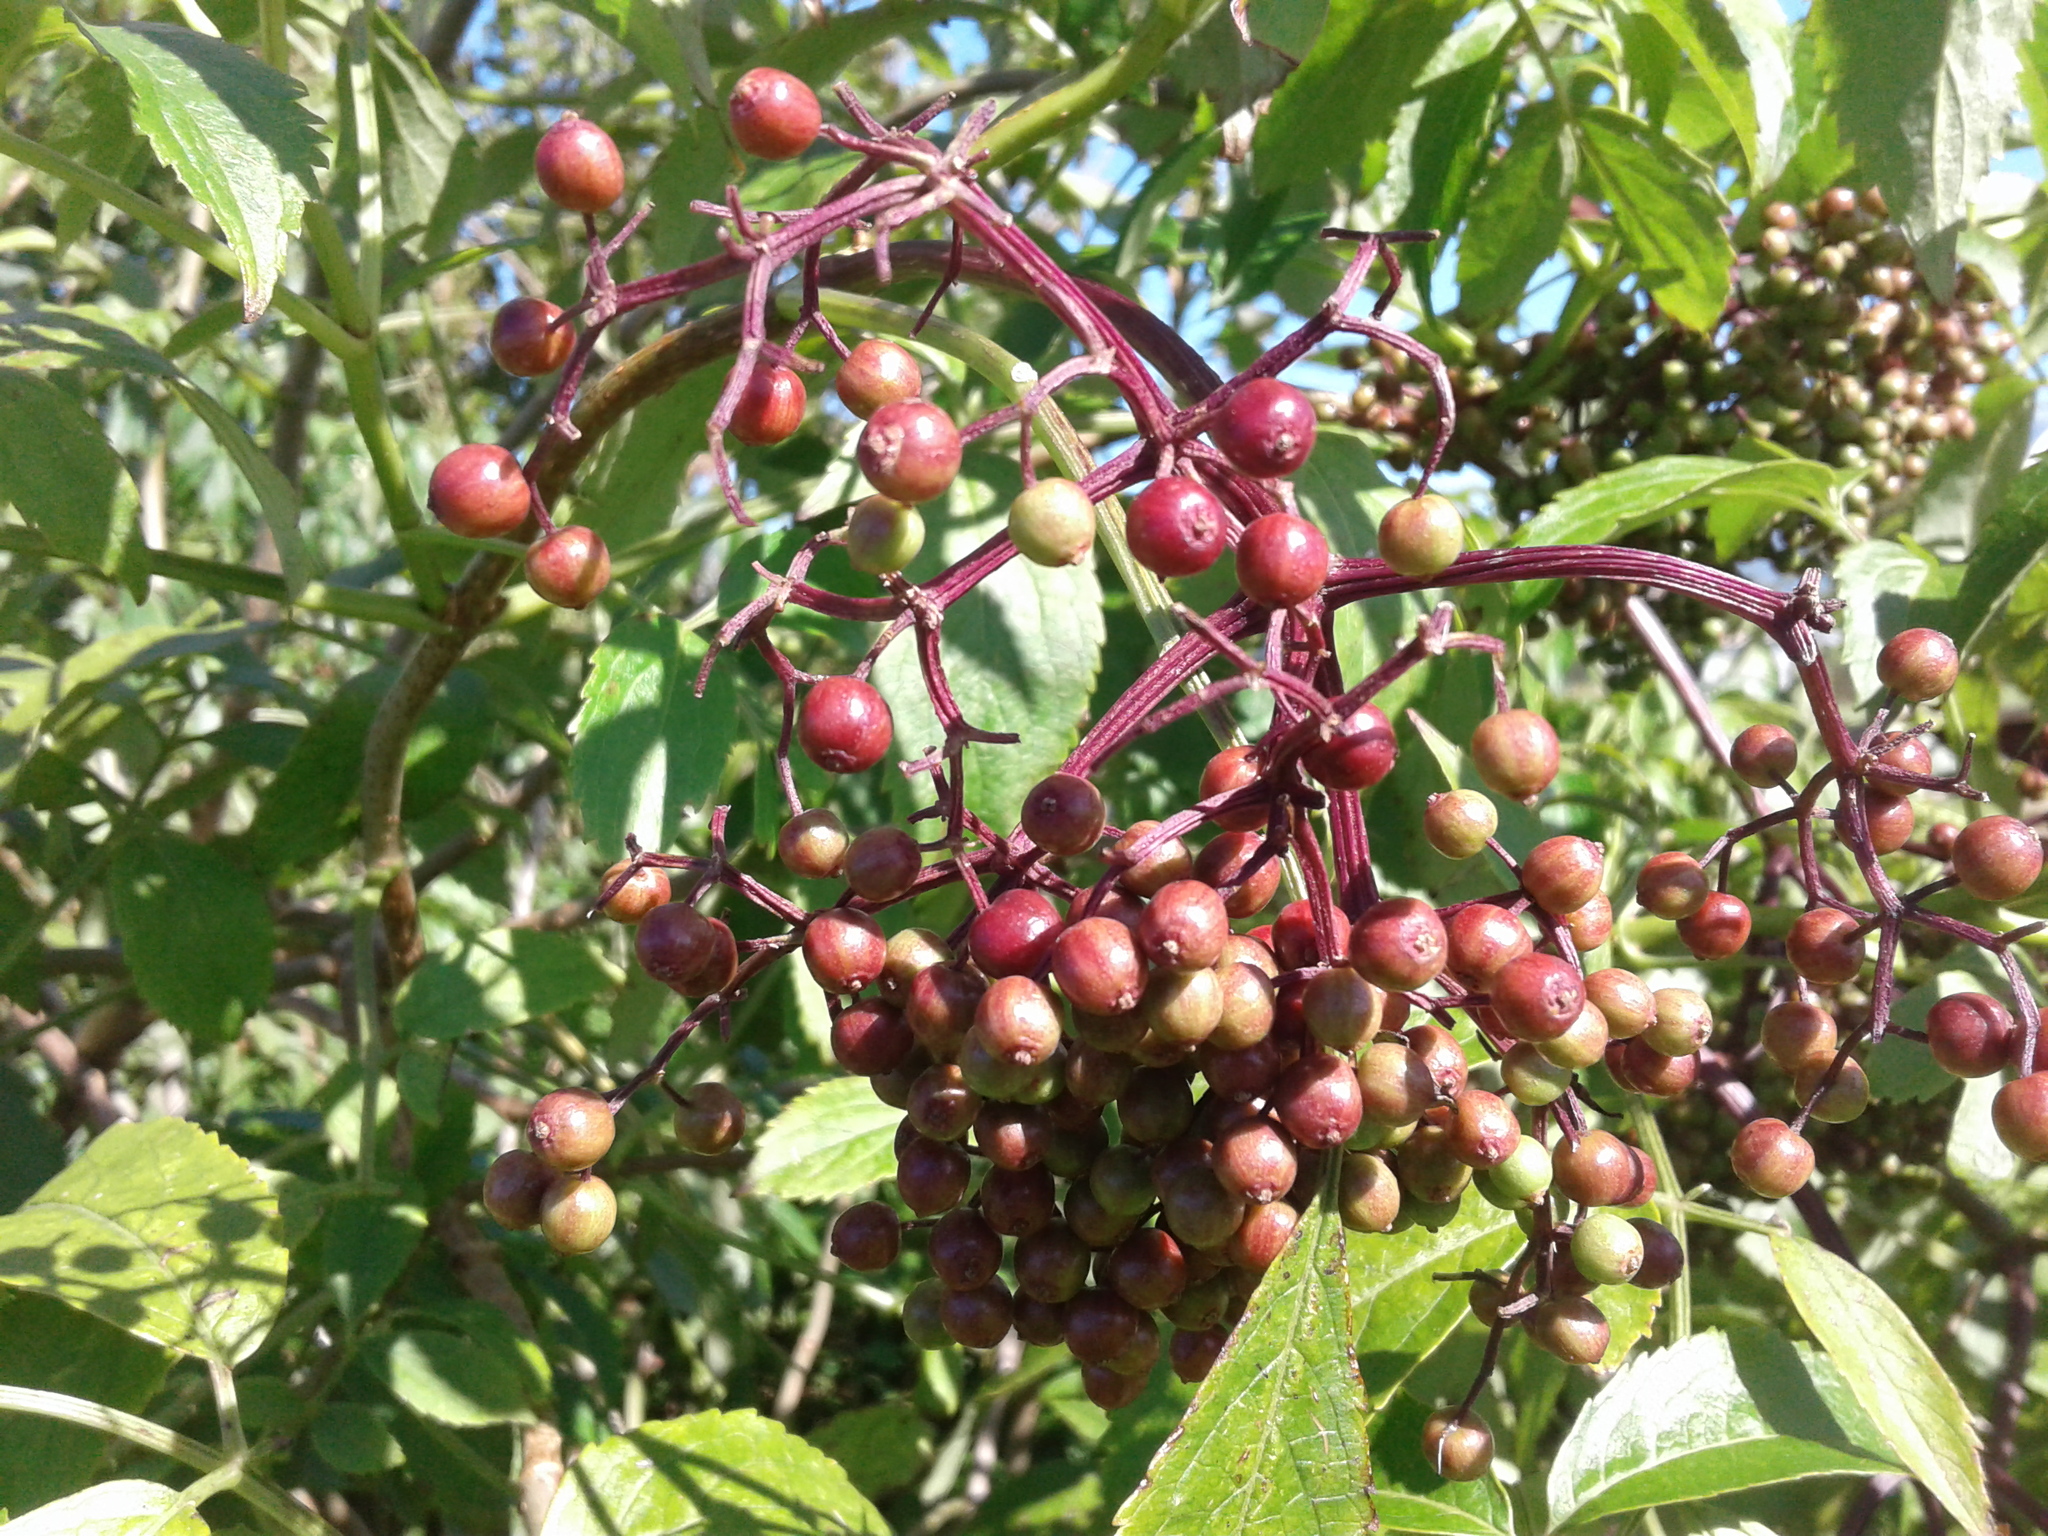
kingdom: Plantae
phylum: Tracheophyta
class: Magnoliopsida
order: Dipsacales
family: Viburnaceae
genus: Sambucus
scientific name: Sambucus nigra
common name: Elder
